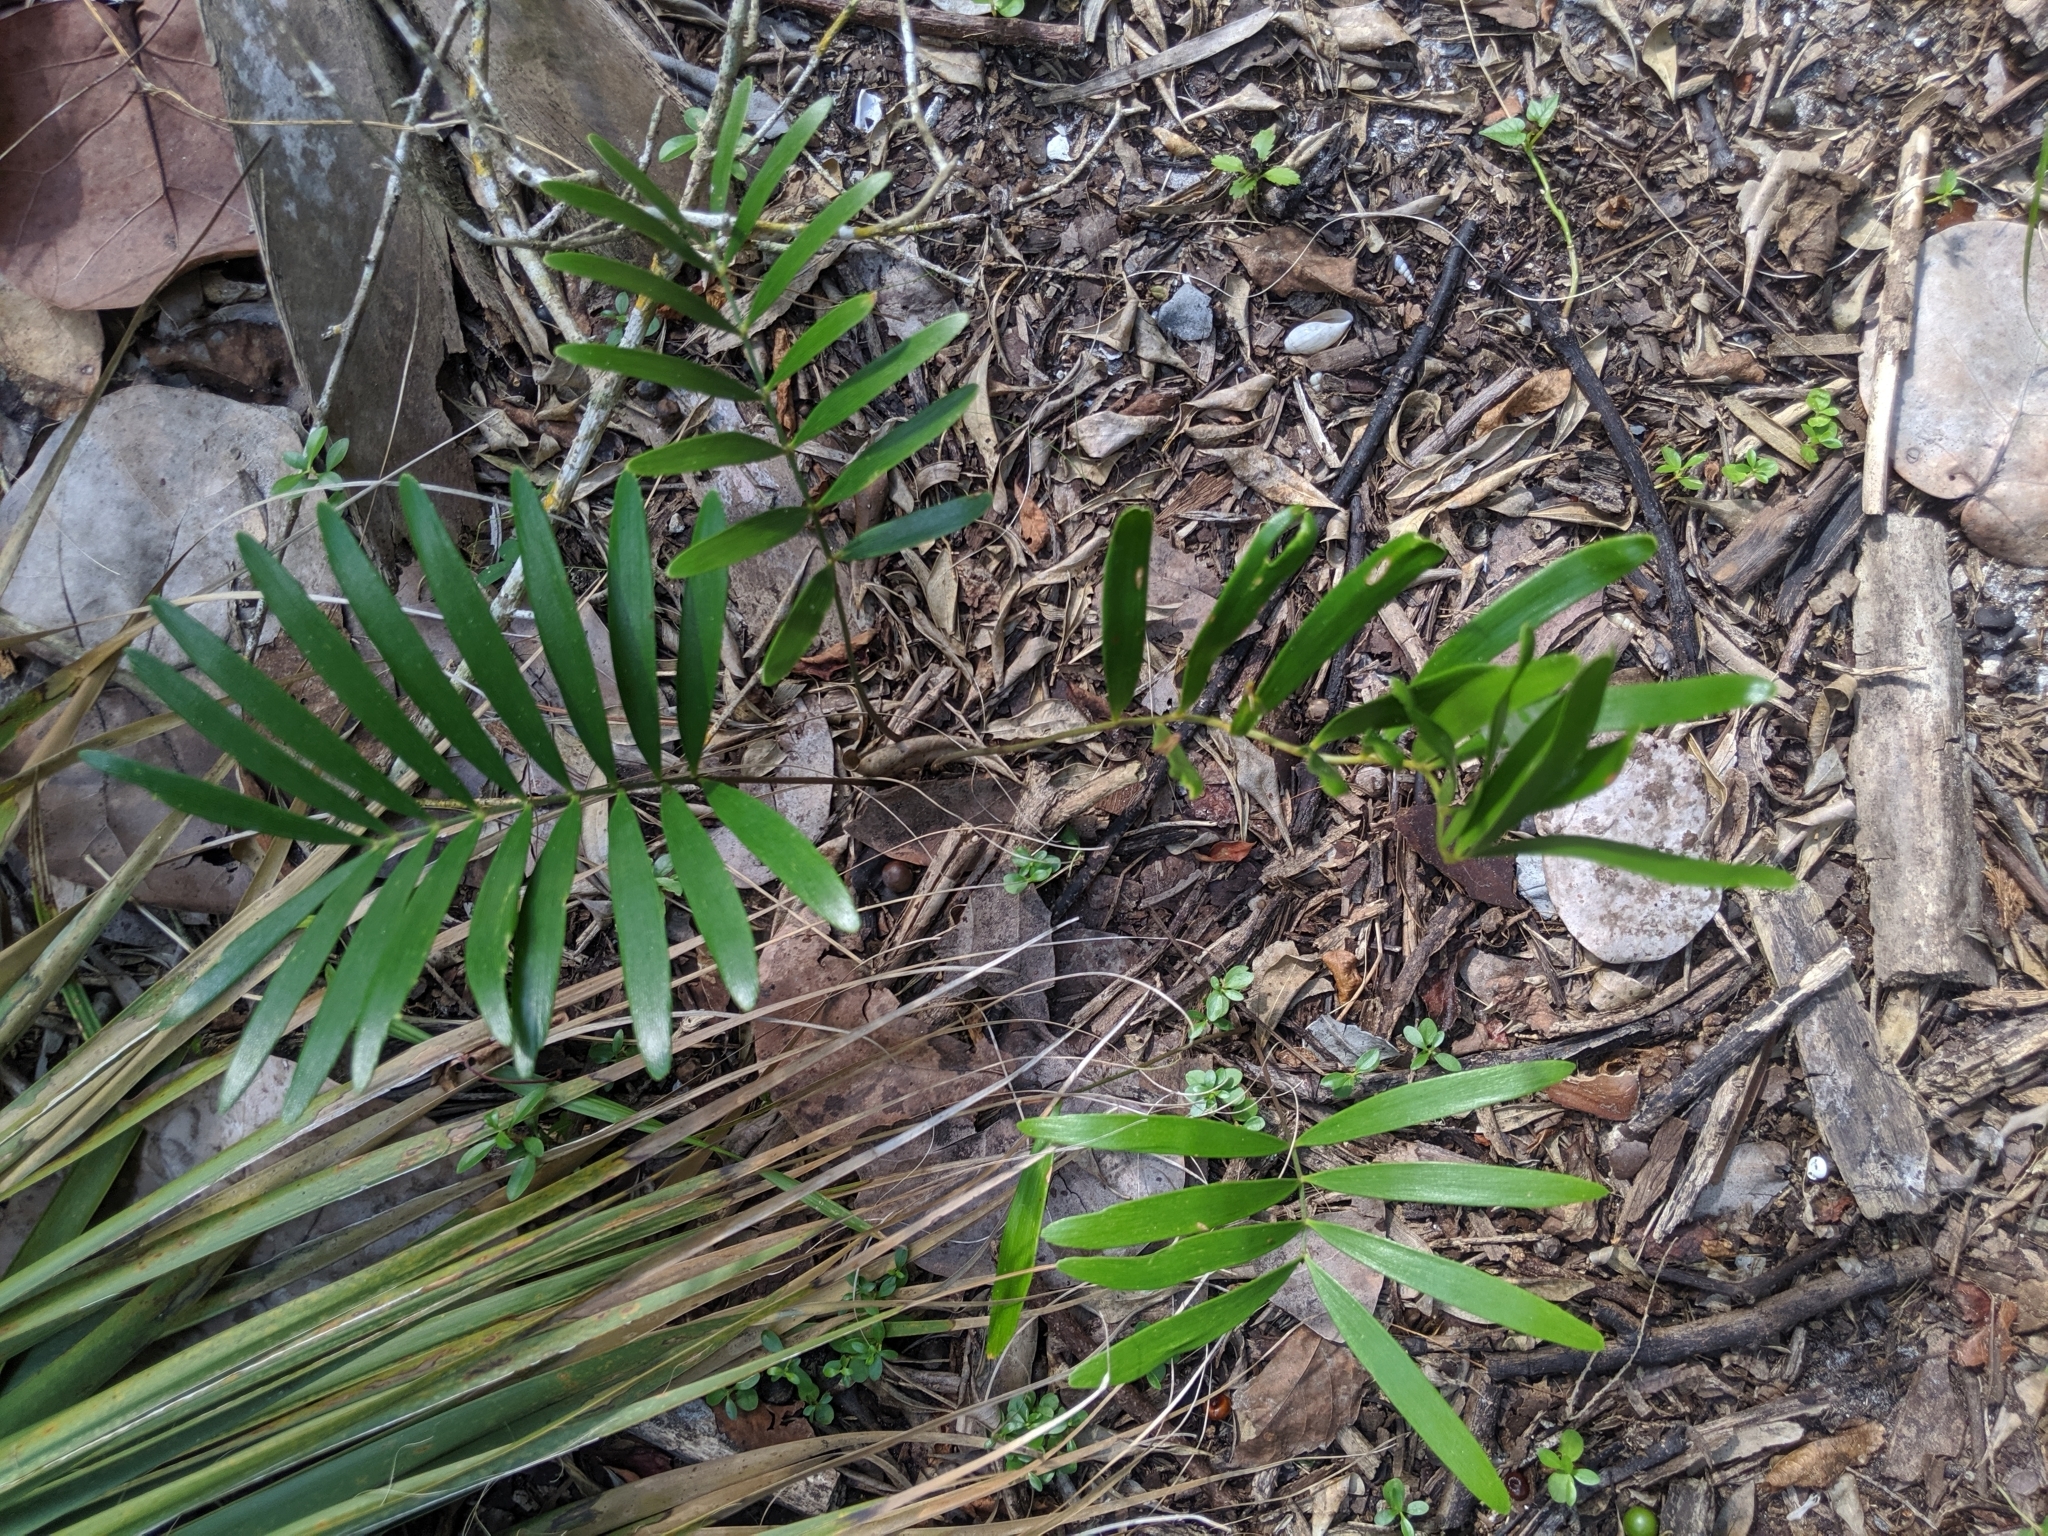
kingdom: Plantae
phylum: Tracheophyta
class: Cycadopsida
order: Cycadales
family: Zamiaceae
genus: Zamia
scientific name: Zamia integrifolia
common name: Florida arrowroot
